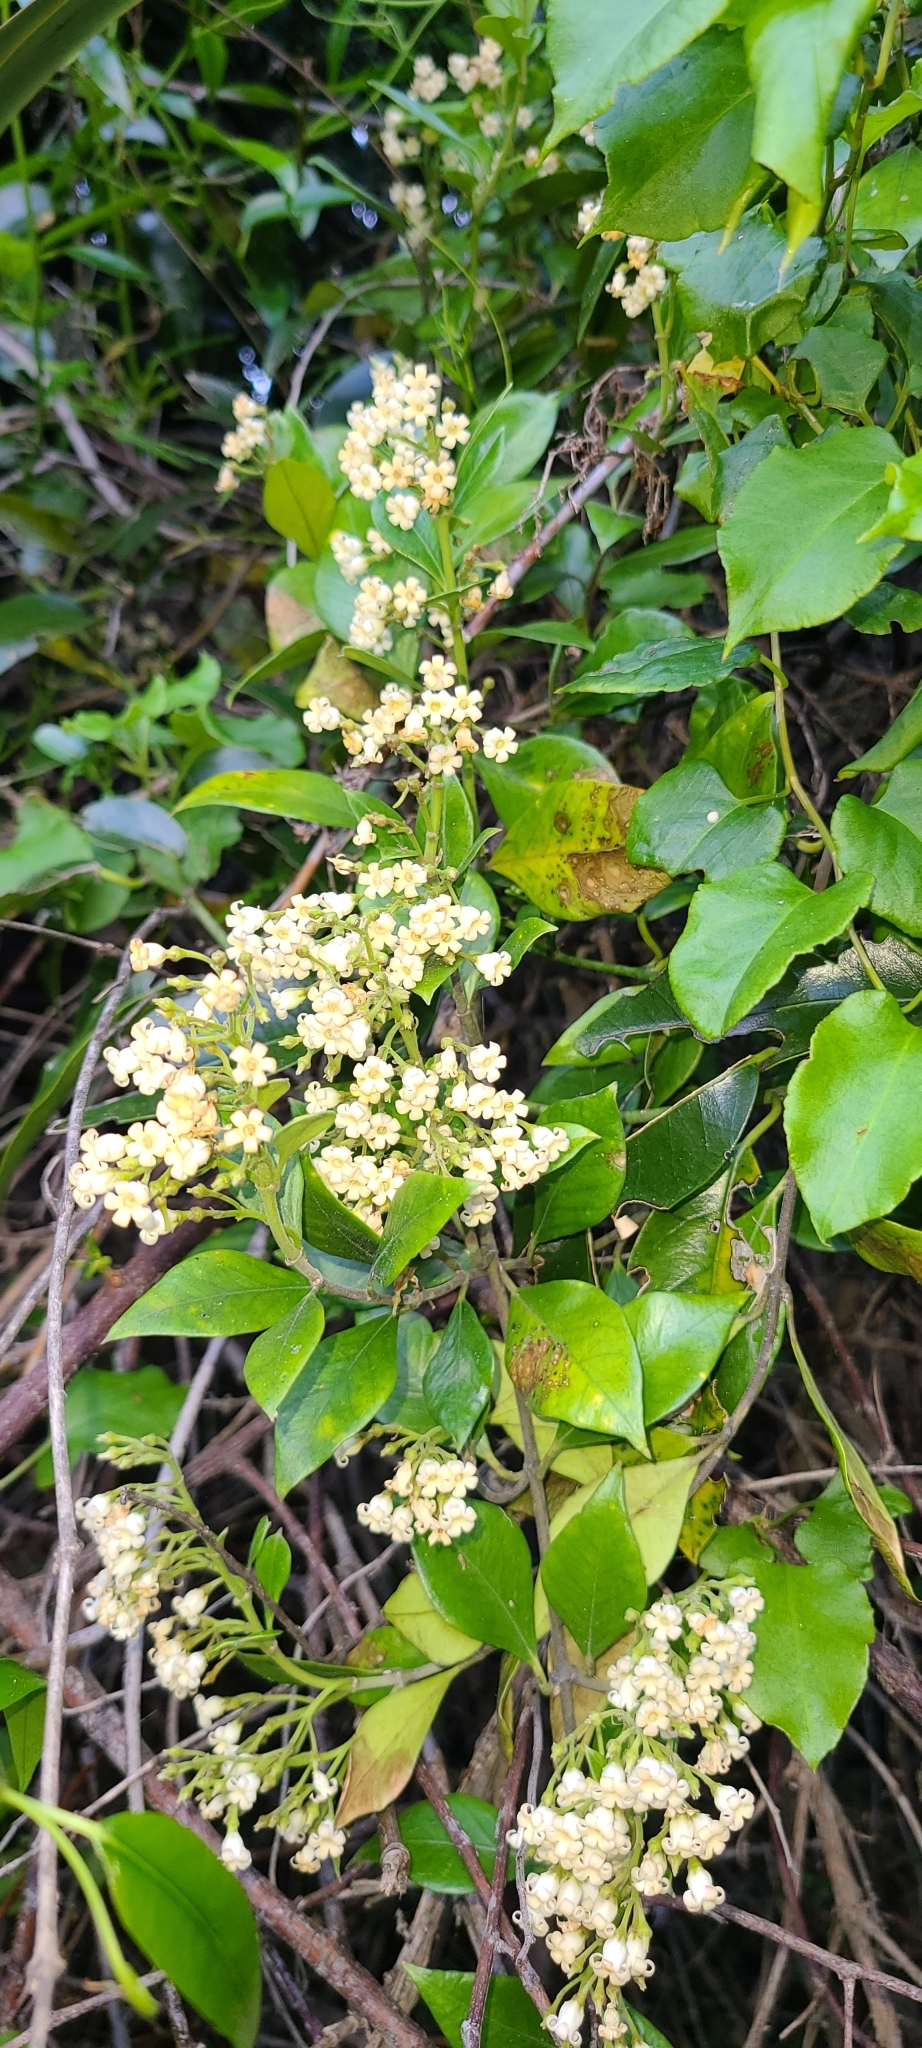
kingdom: Plantae
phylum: Tracheophyta
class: Magnoliopsida
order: Gentianales
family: Apocynaceae
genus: Parsonsia
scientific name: Parsonsia heterophylla
